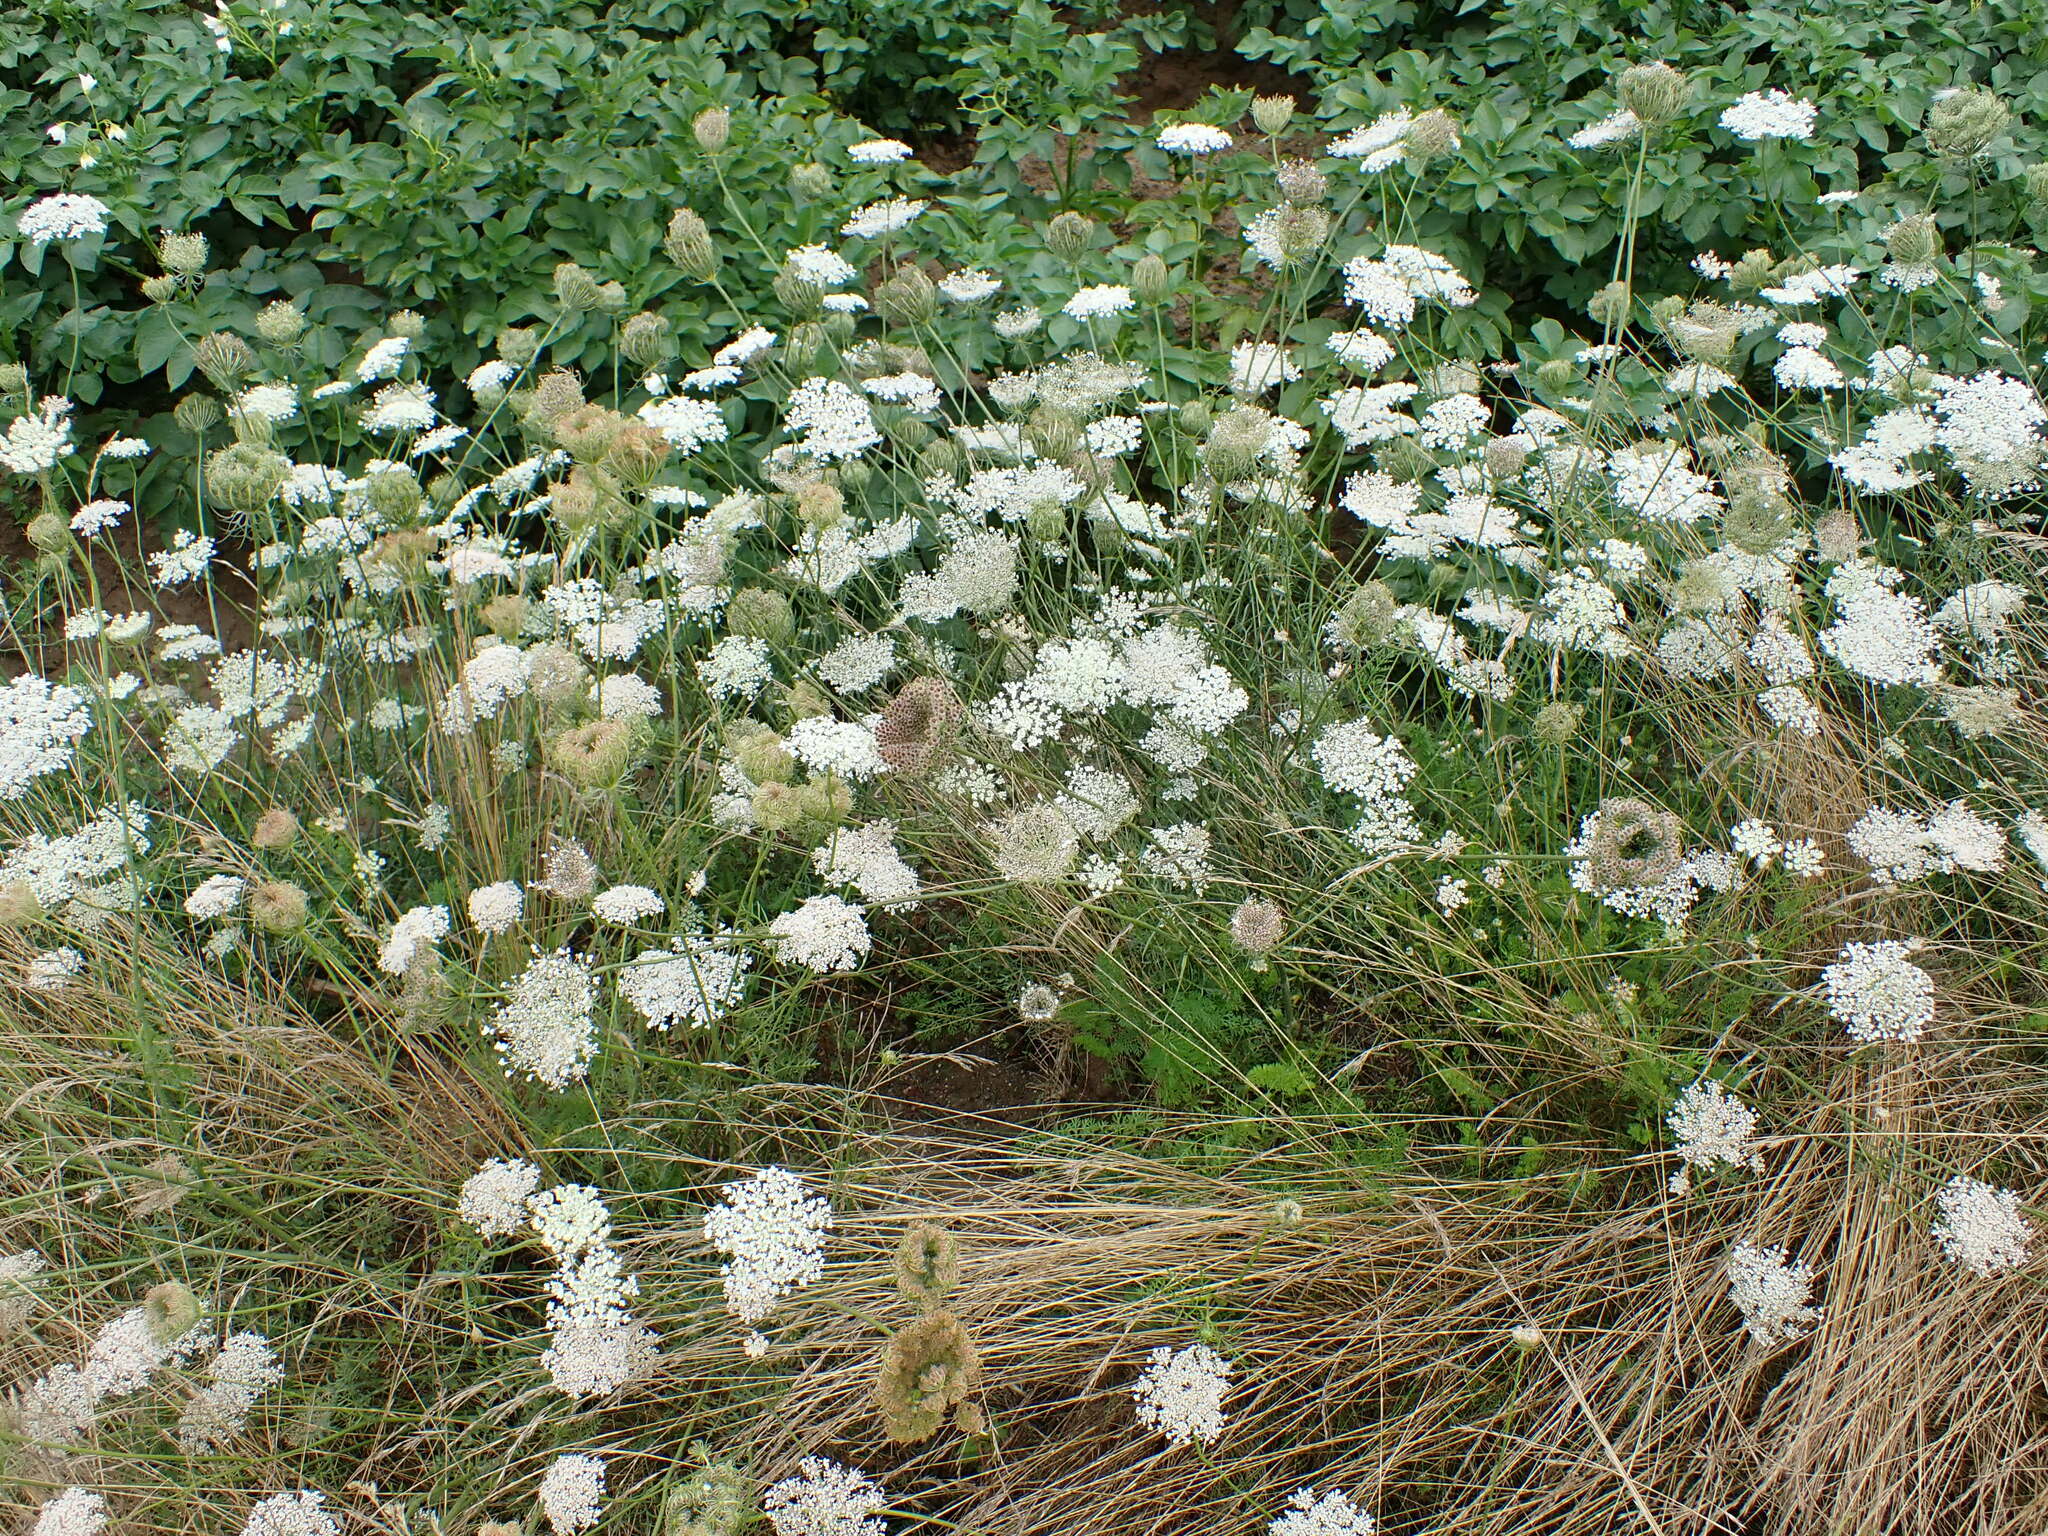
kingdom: Plantae
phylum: Tracheophyta
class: Magnoliopsida
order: Apiales
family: Apiaceae
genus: Daucus
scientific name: Daucus carota
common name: Wild carrot
